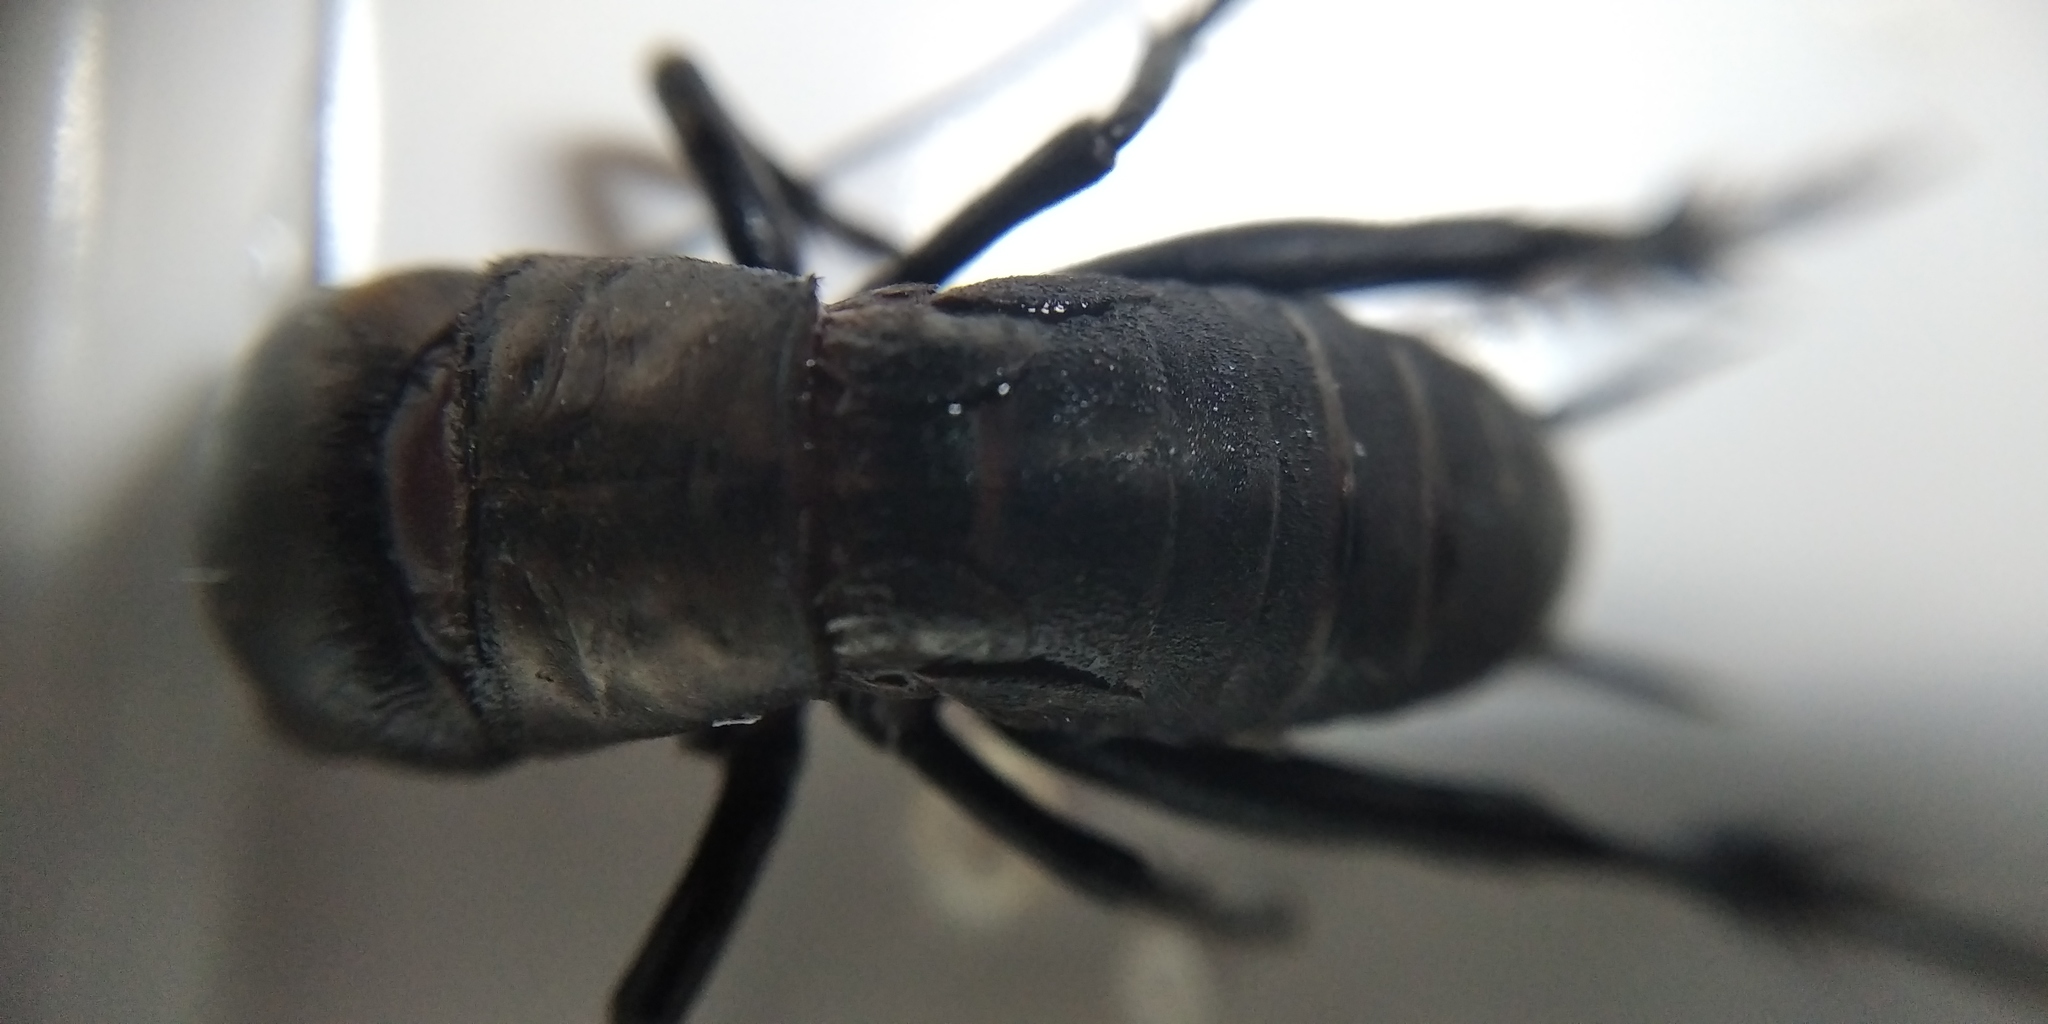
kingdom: Animalia
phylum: Arthropoda
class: Insecta
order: Orthoptera
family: Gryllidae
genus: Gryllus
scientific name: Gryllus campestris
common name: Field cricket
